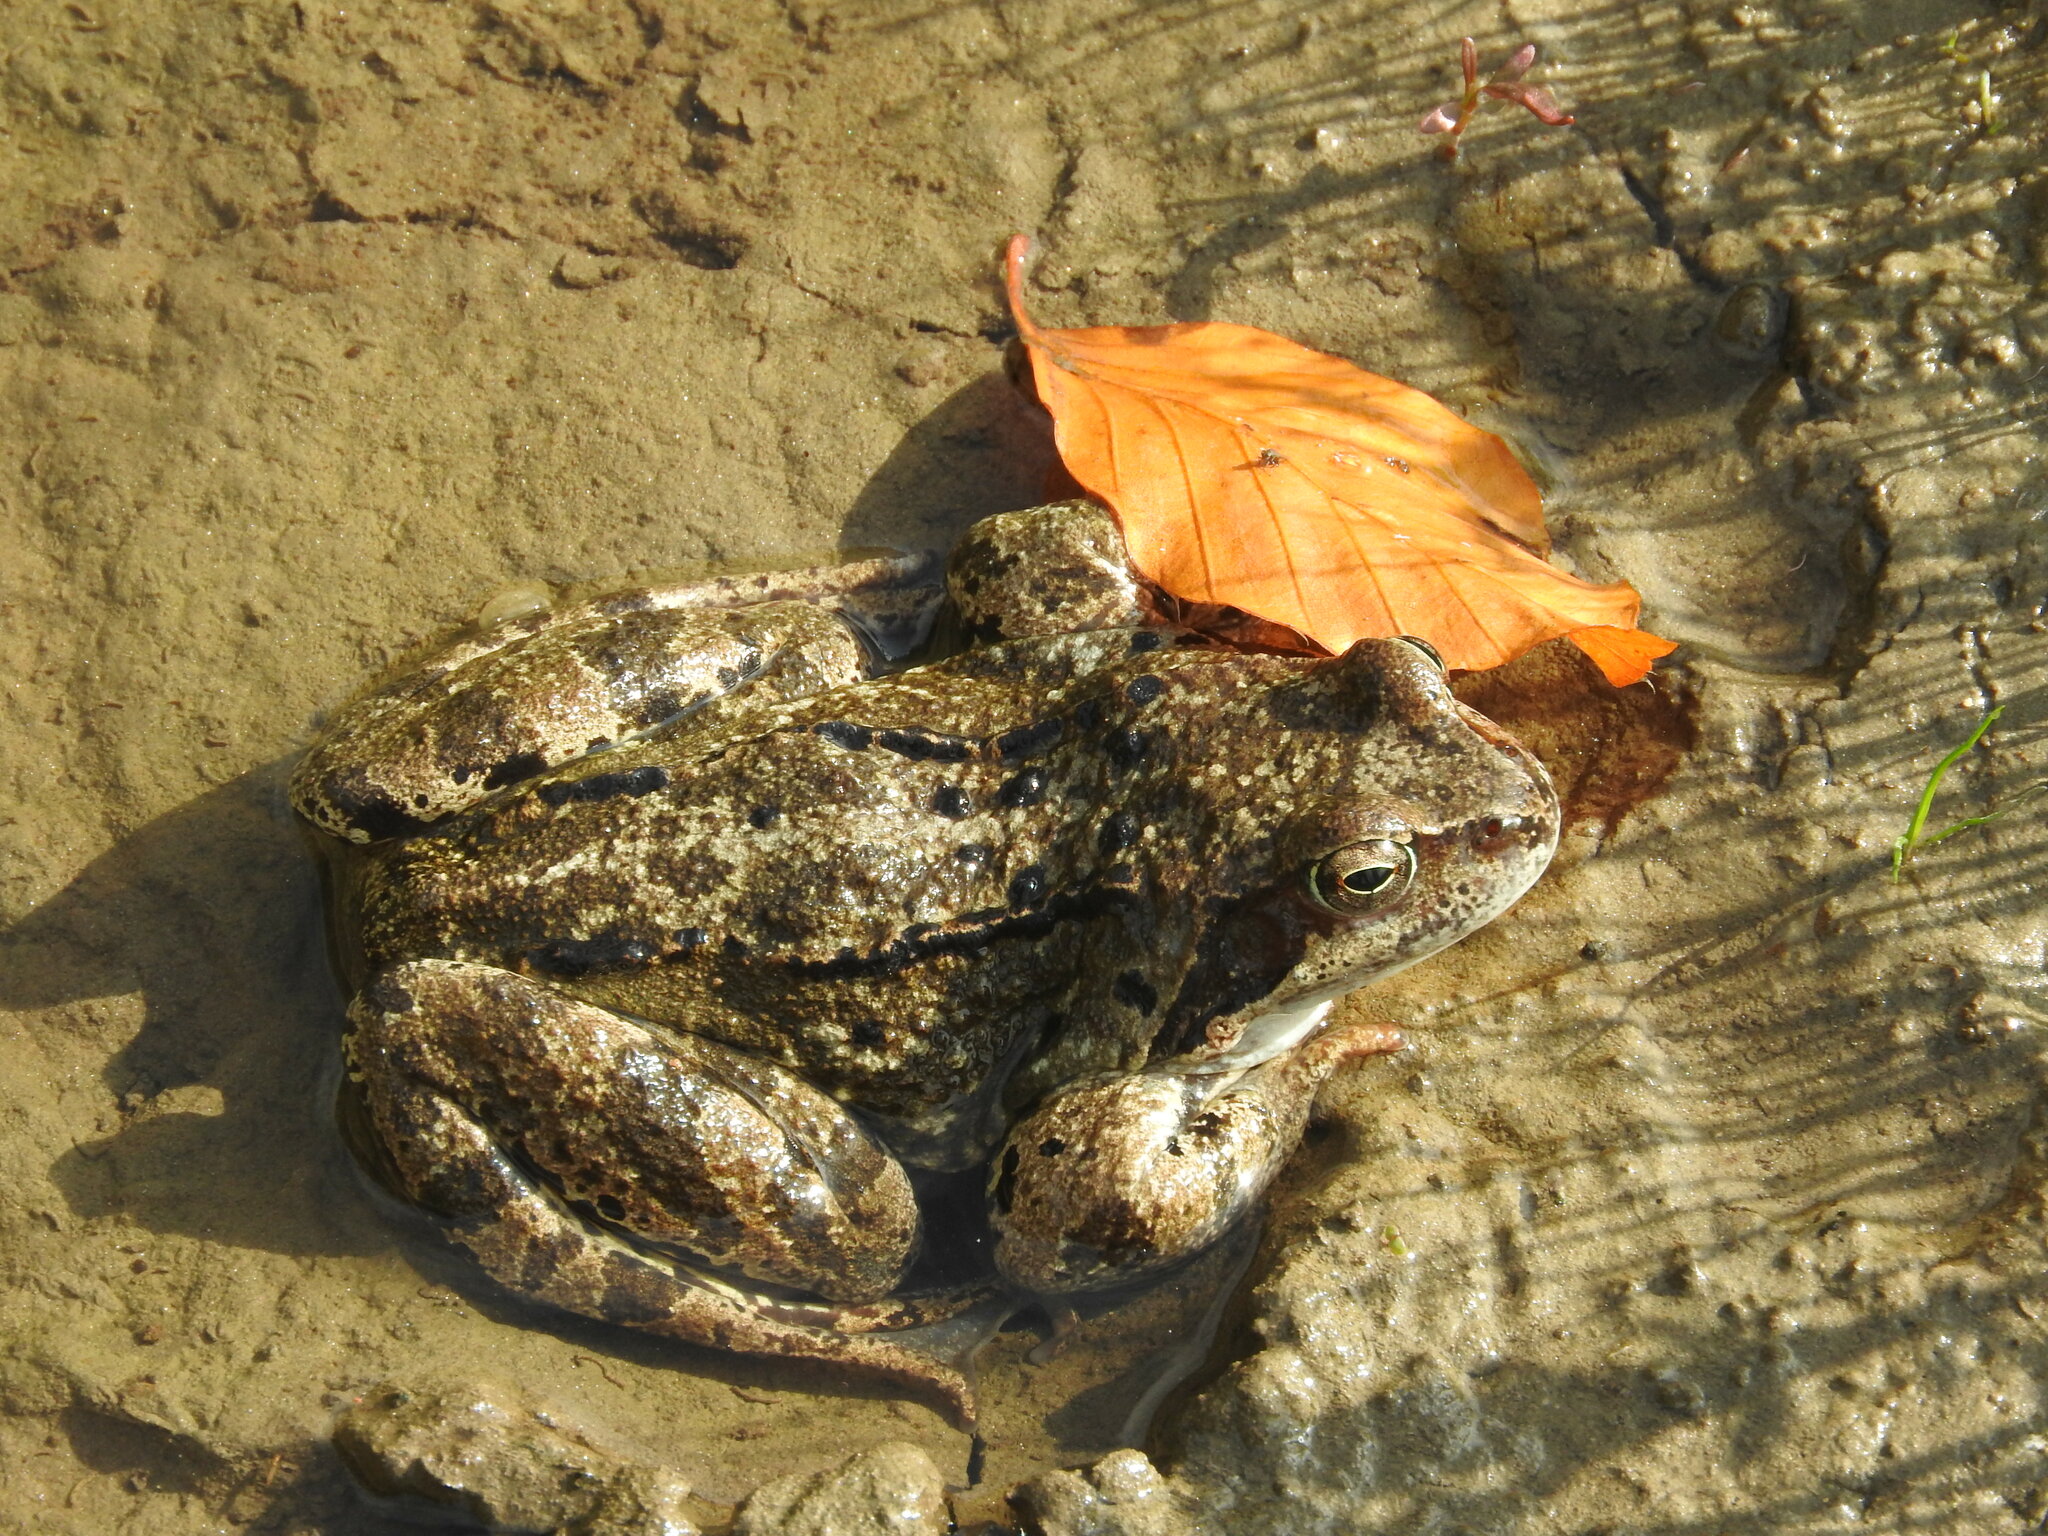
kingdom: Animalia
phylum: Chordata
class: Amphibia
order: Anura
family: Ranidae
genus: Rana
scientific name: Rana temporaria
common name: Common frog
